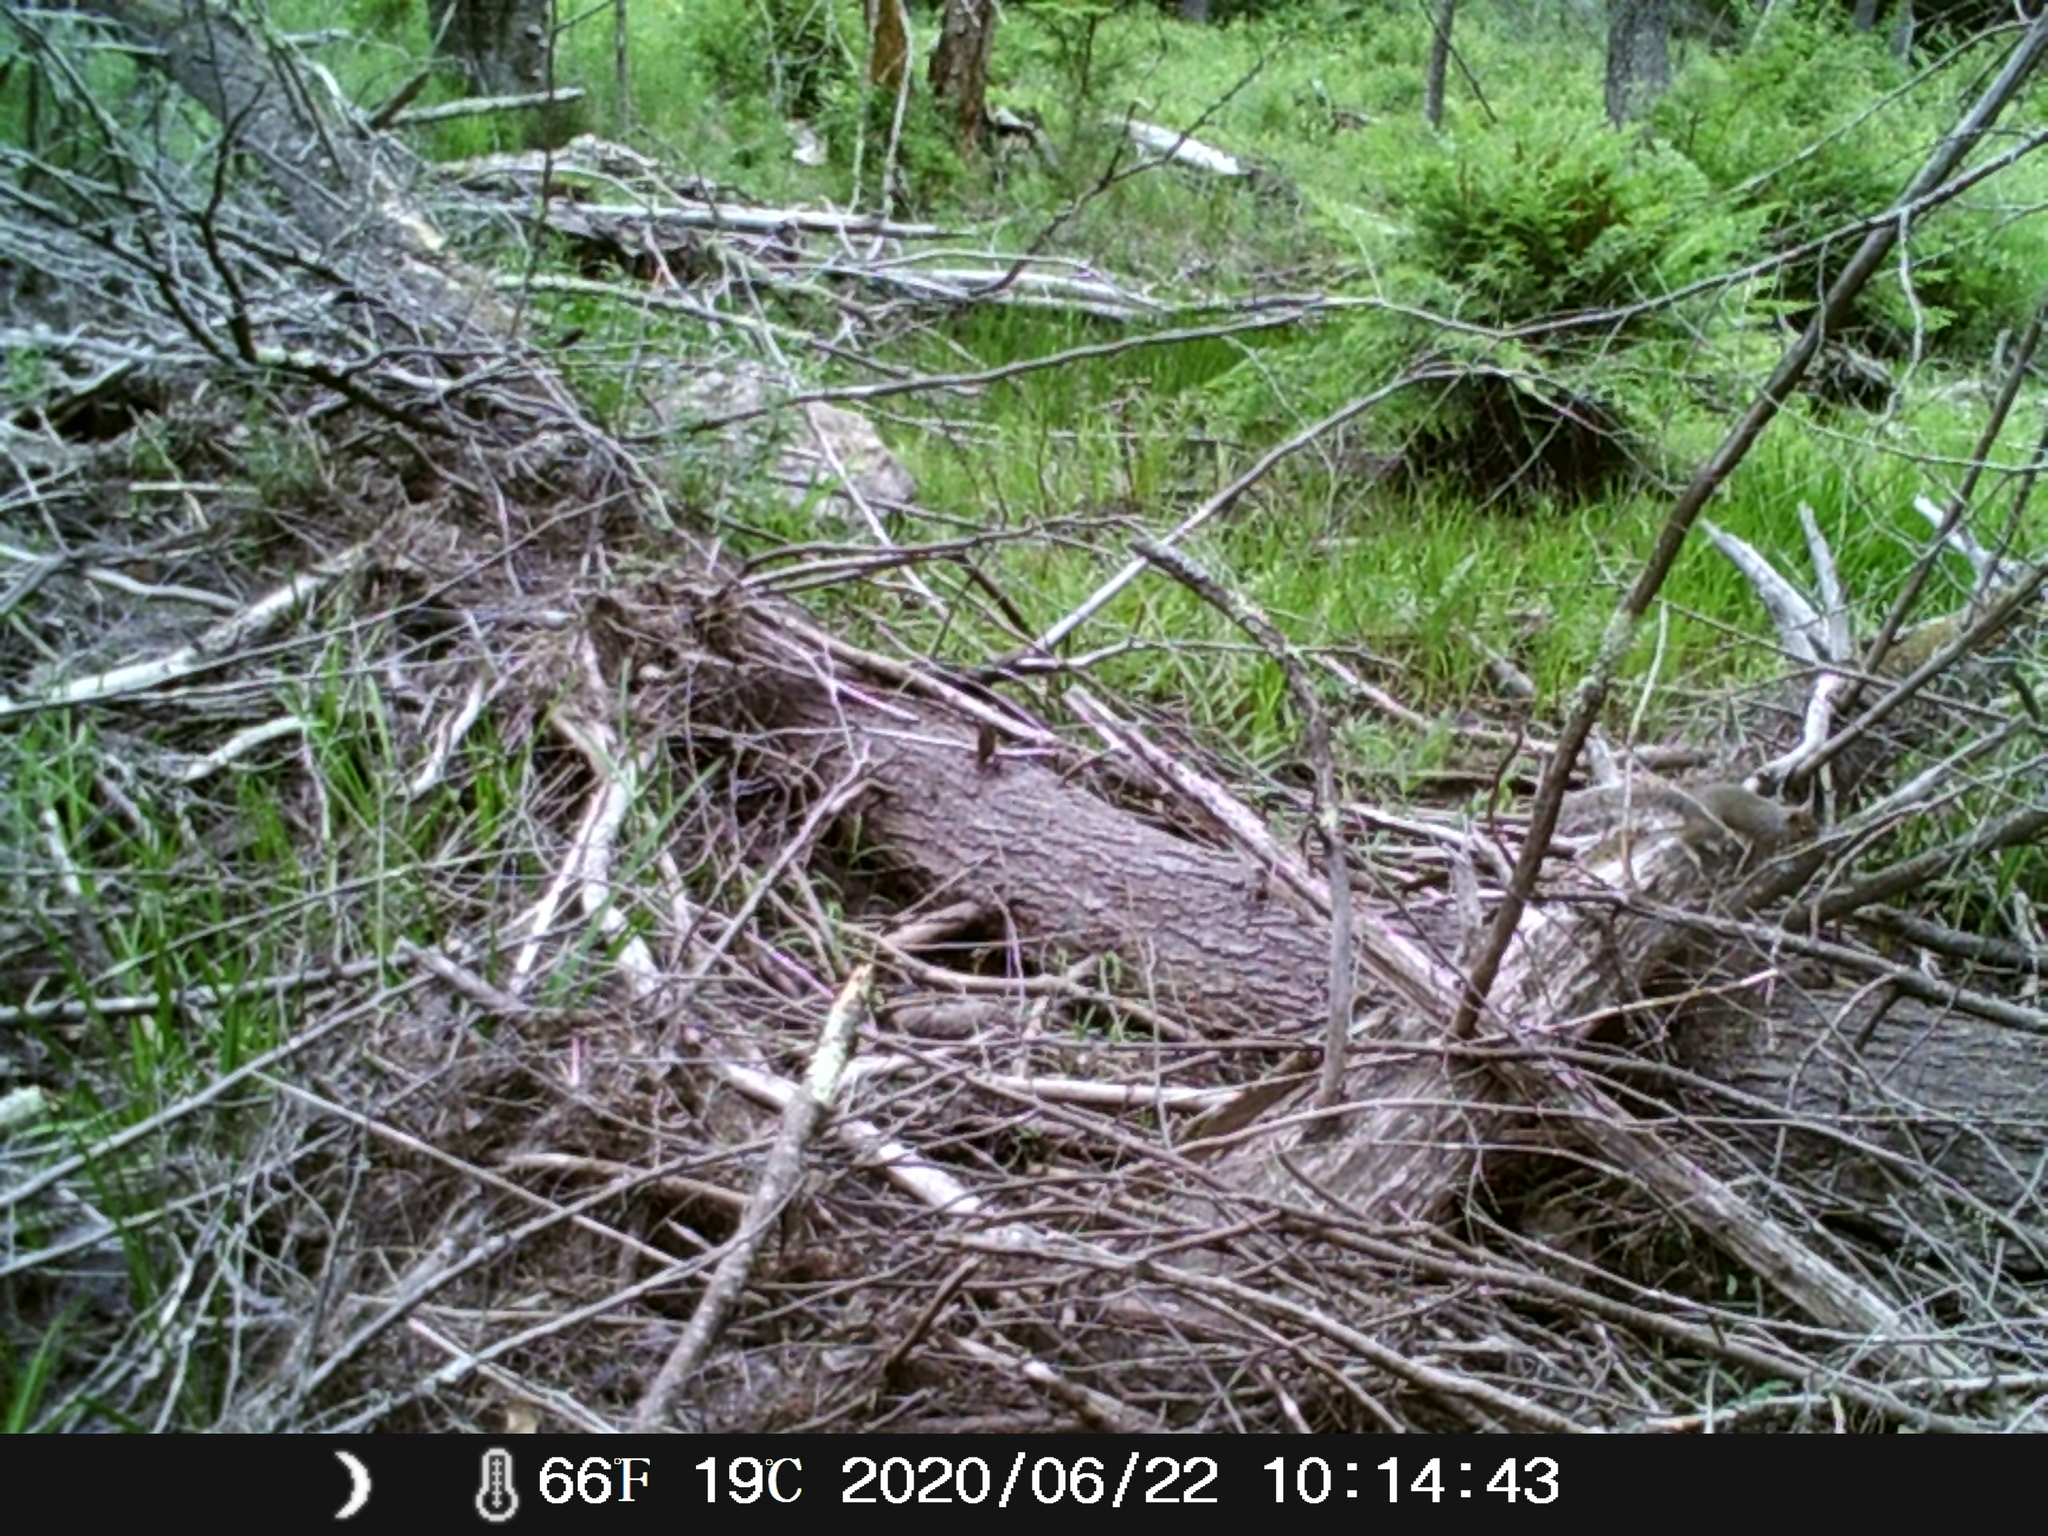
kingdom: Animalia
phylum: Chordata
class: Mammalia
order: Rodentia
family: Sciuridae
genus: Sciurus
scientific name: Sciurus carolinensis
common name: Eastern gray squirrel
